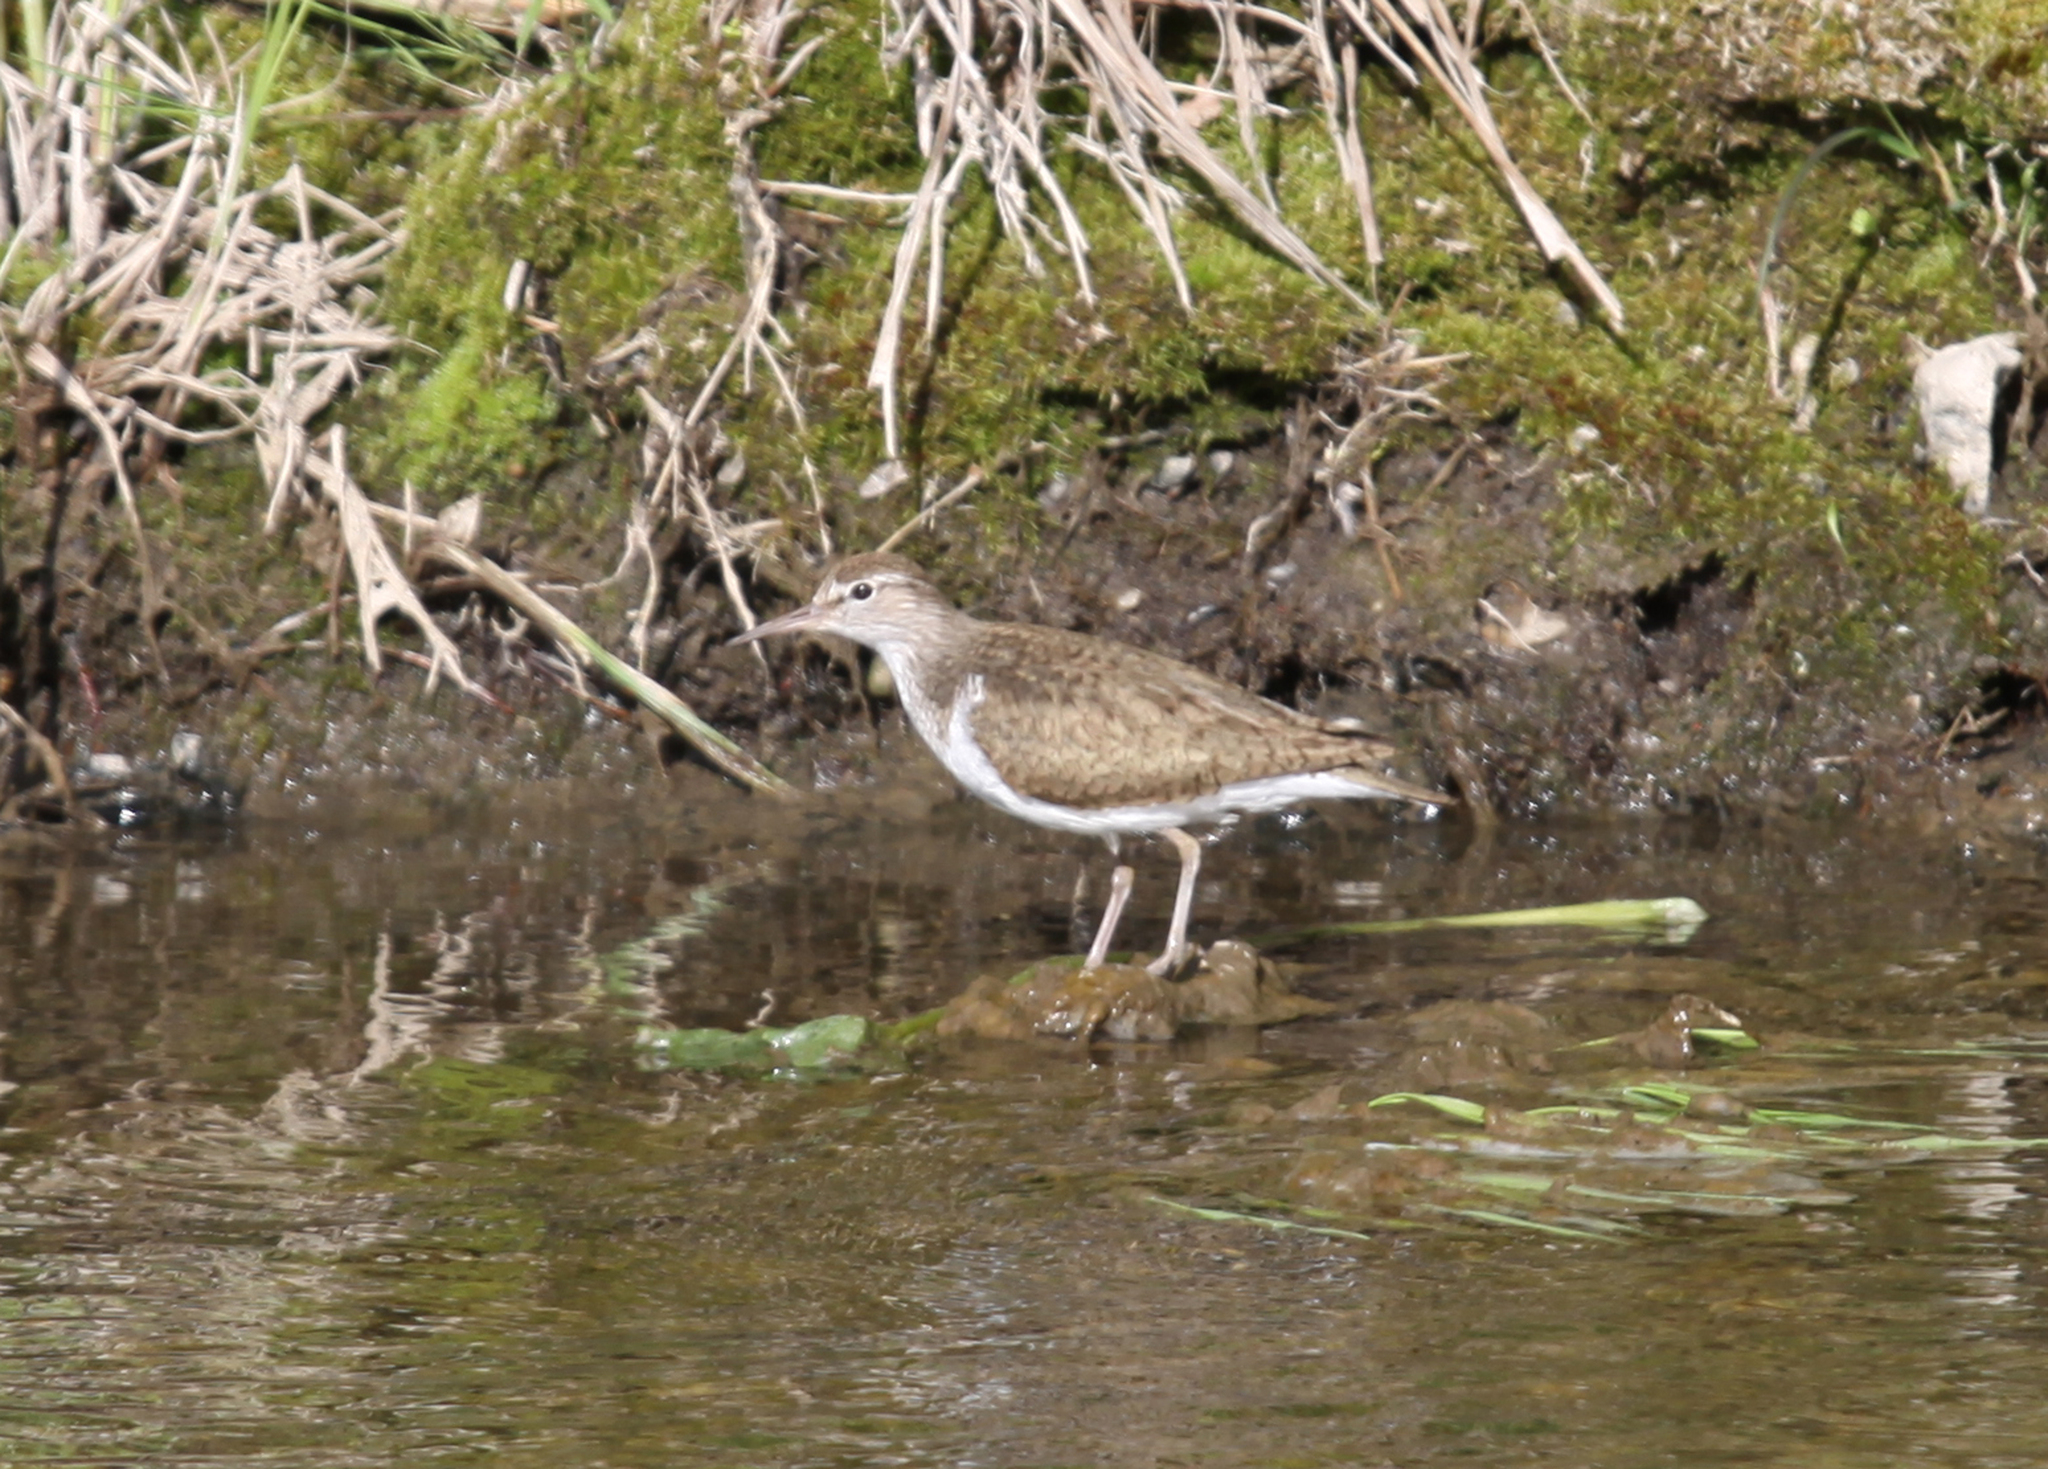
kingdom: Animalia
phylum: Chordata
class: Aves
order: Charadriiformes
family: Scolopacidae
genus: Actitis
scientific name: Actitis hypoleucos
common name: Common sandpiper
